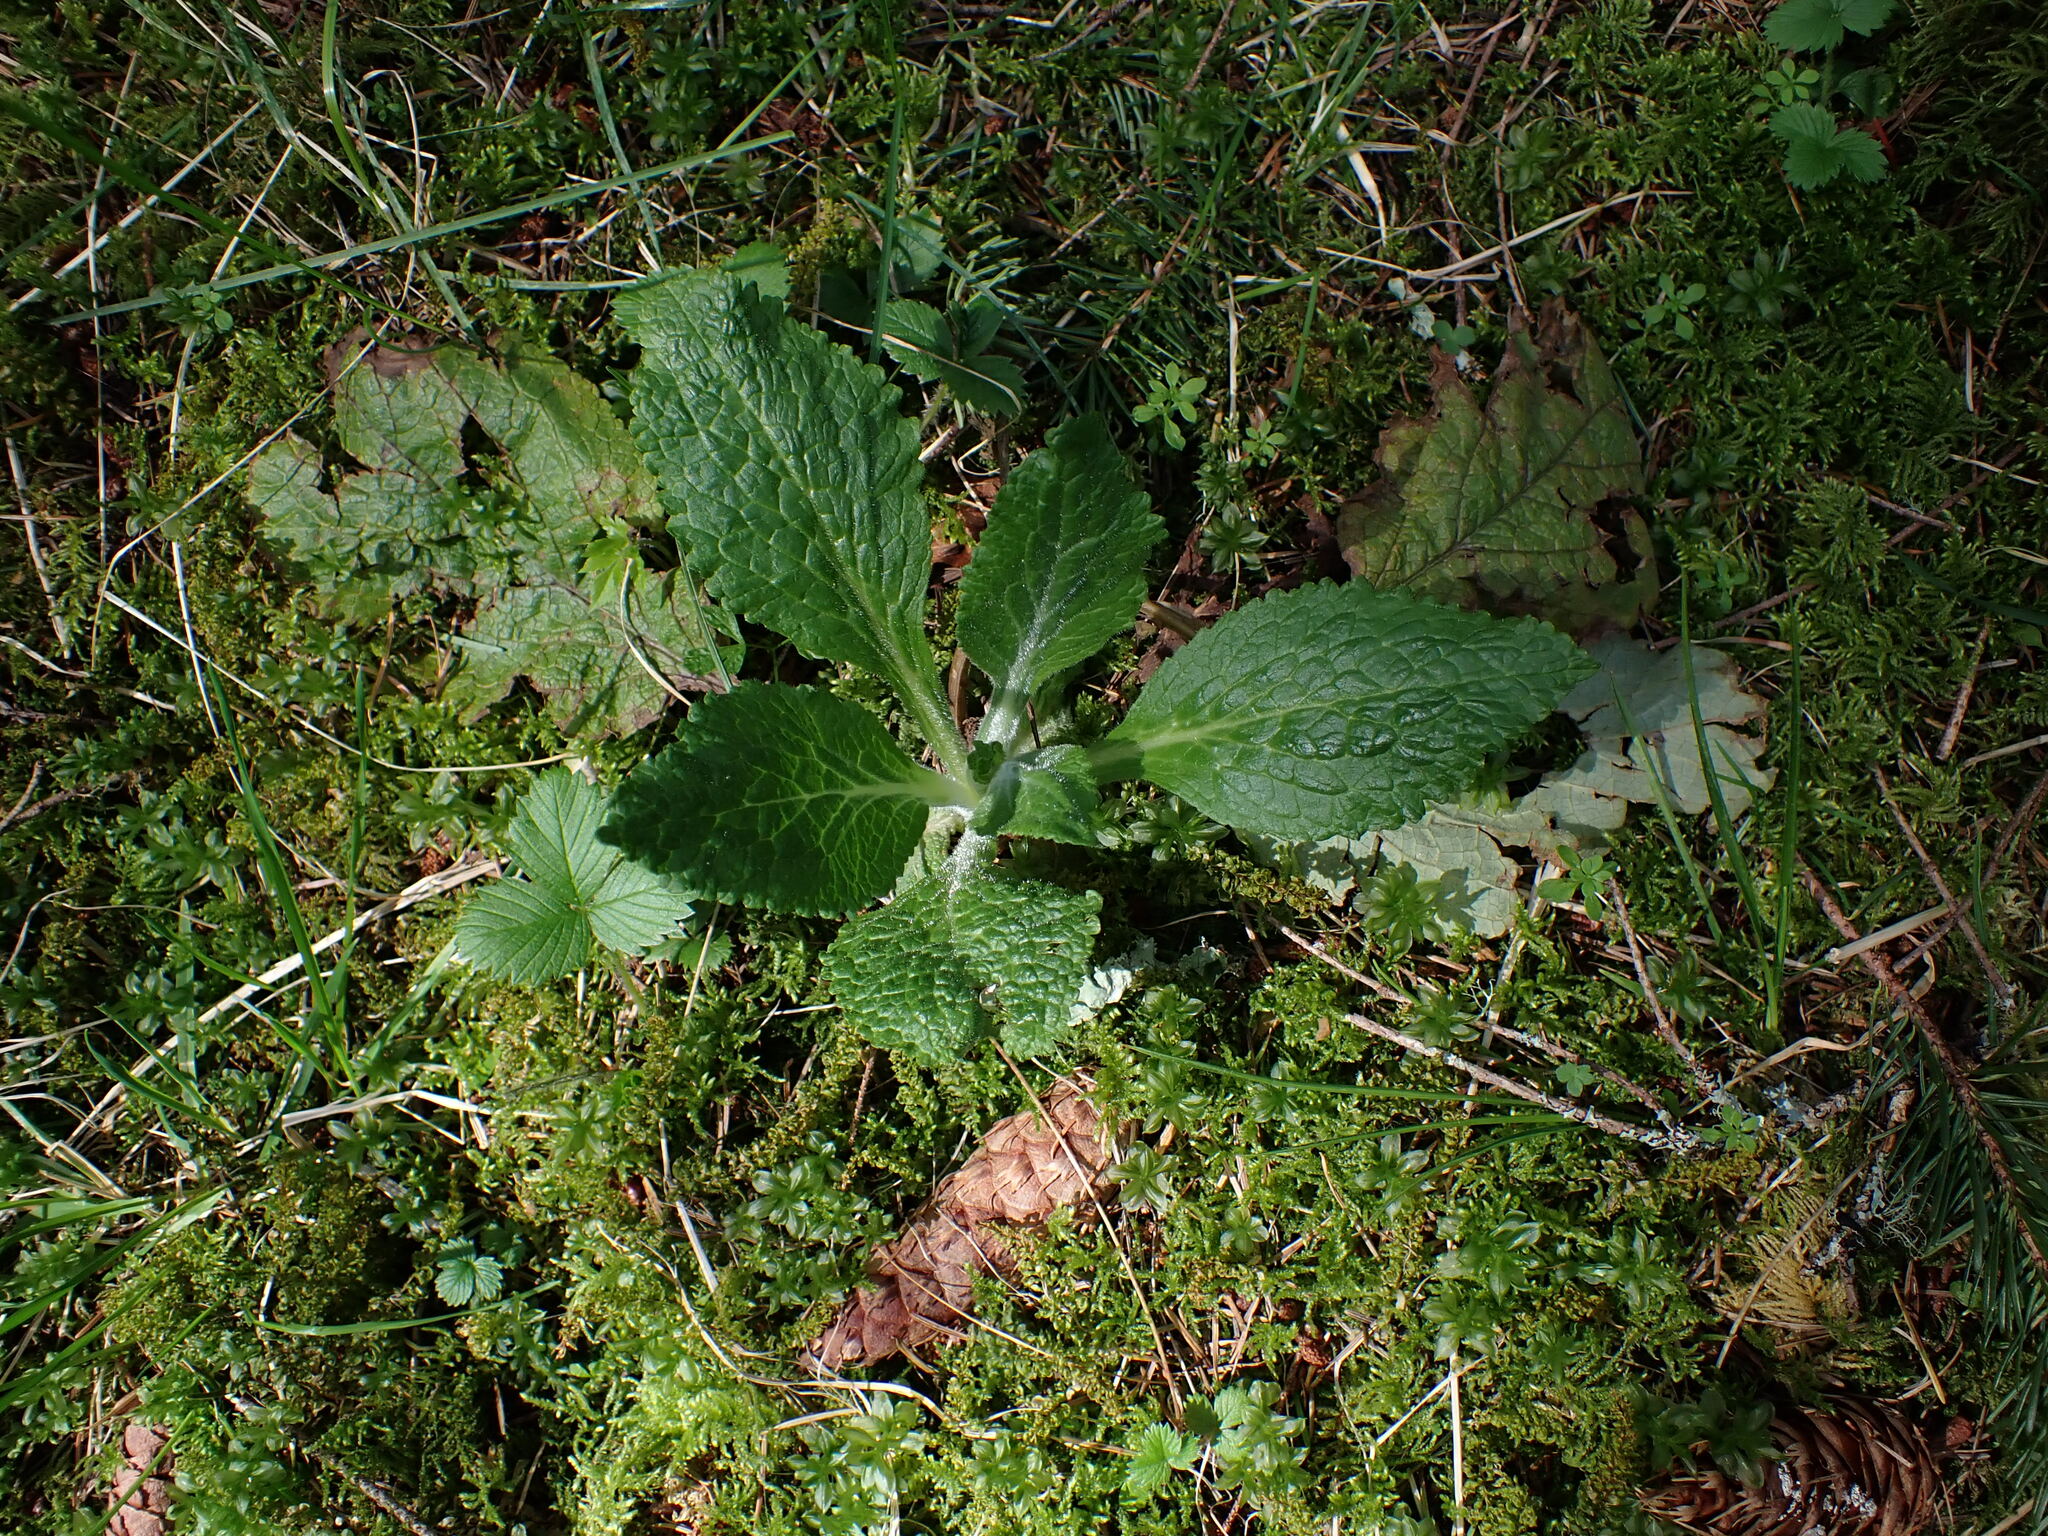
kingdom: Plantae
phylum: Tracheophyta
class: Magnoliopsida
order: Lamiales
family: Plantaginaceae
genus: Digitalis
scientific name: Digitalis purpurea
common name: Foxglove
